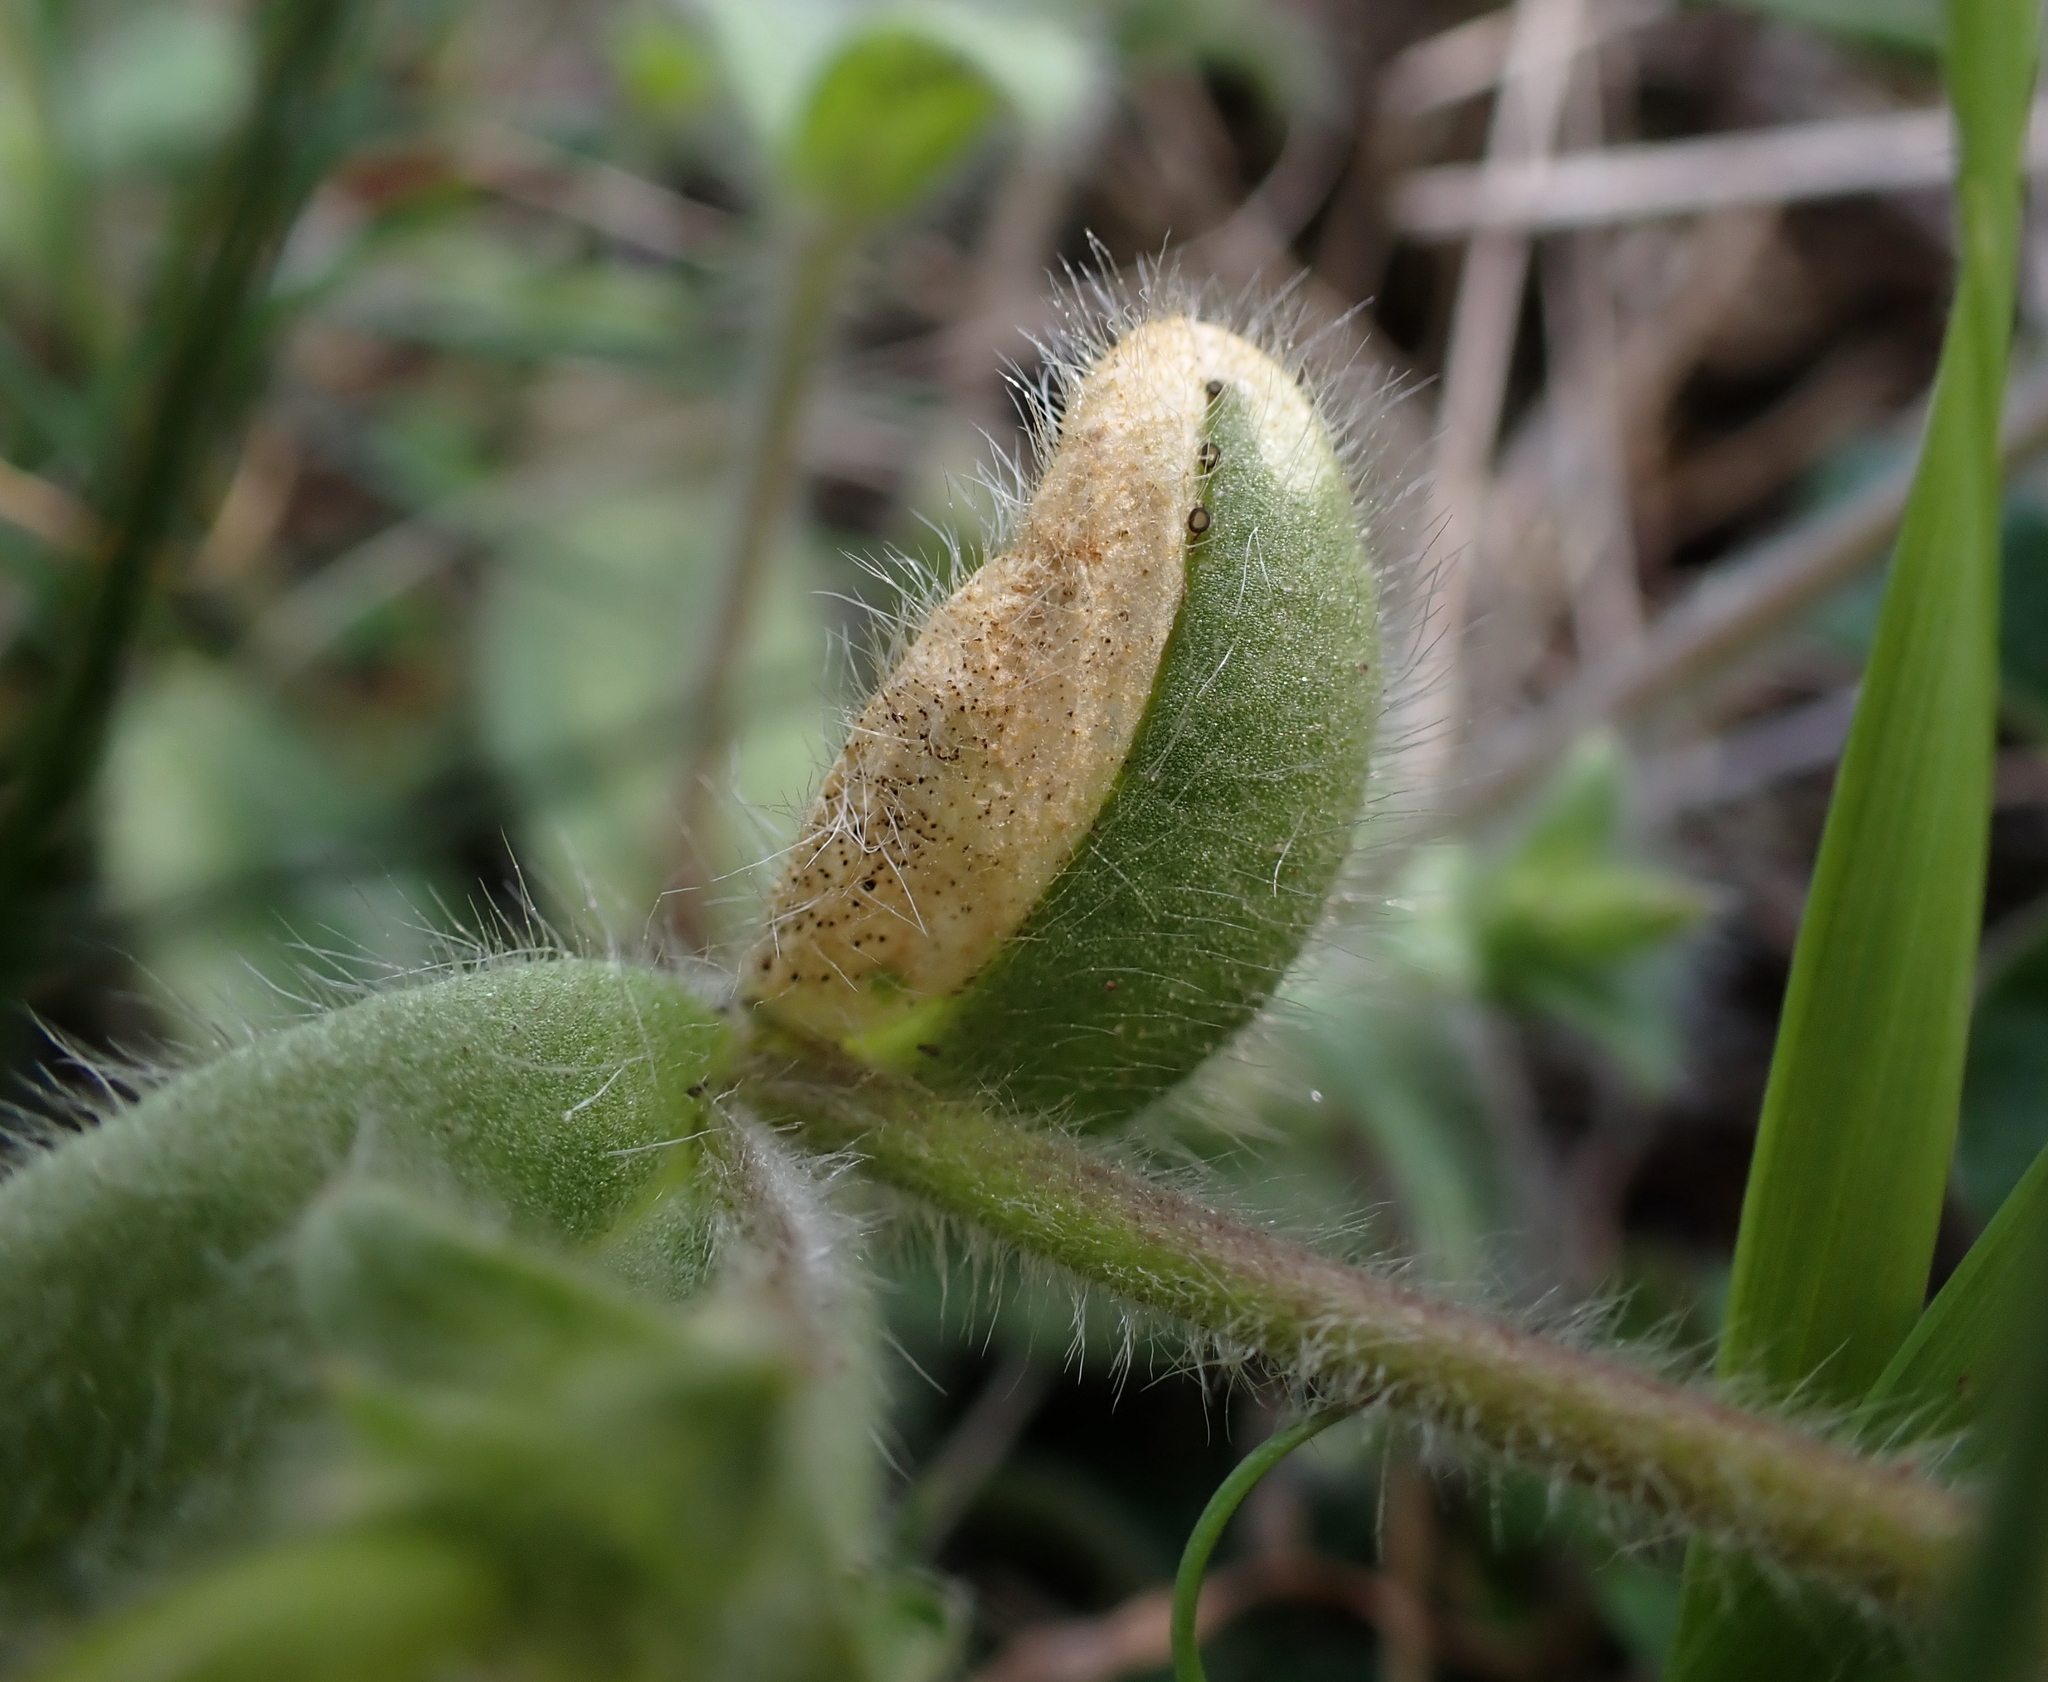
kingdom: Fungi
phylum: Ascomycota
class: Leotiomycetes
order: Helotiales
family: Drepanopezizaceae
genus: Leptotrochila
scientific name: Leptotrochila cerastiorum
